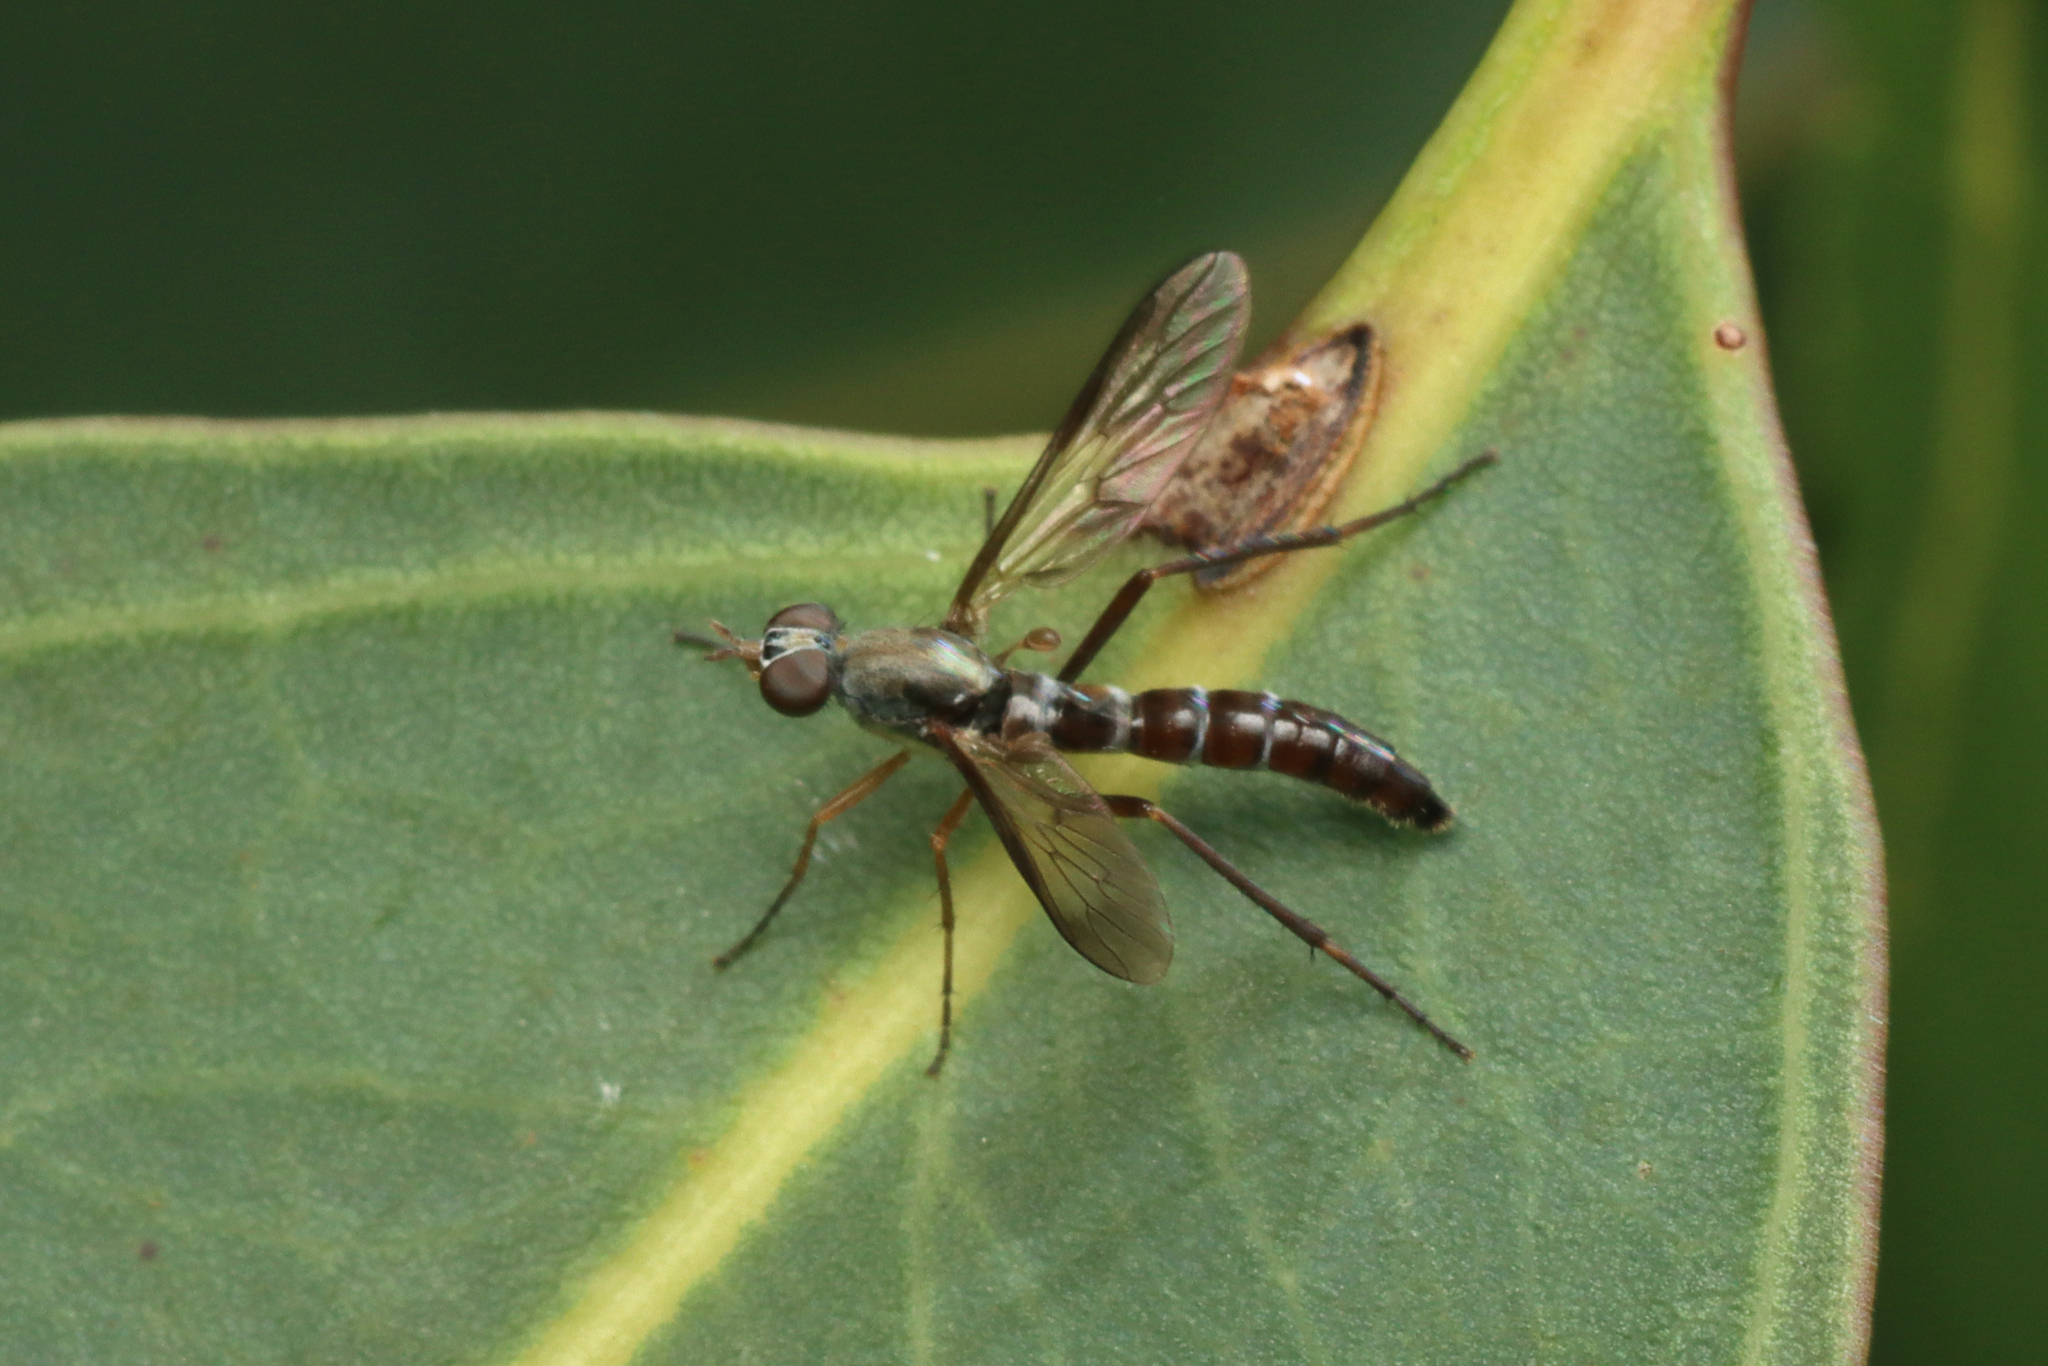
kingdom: Animalia
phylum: Arthropoda
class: Insecta
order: Diptera
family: Therevidae
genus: Taenogerella
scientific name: Taenogerella elizabethae
